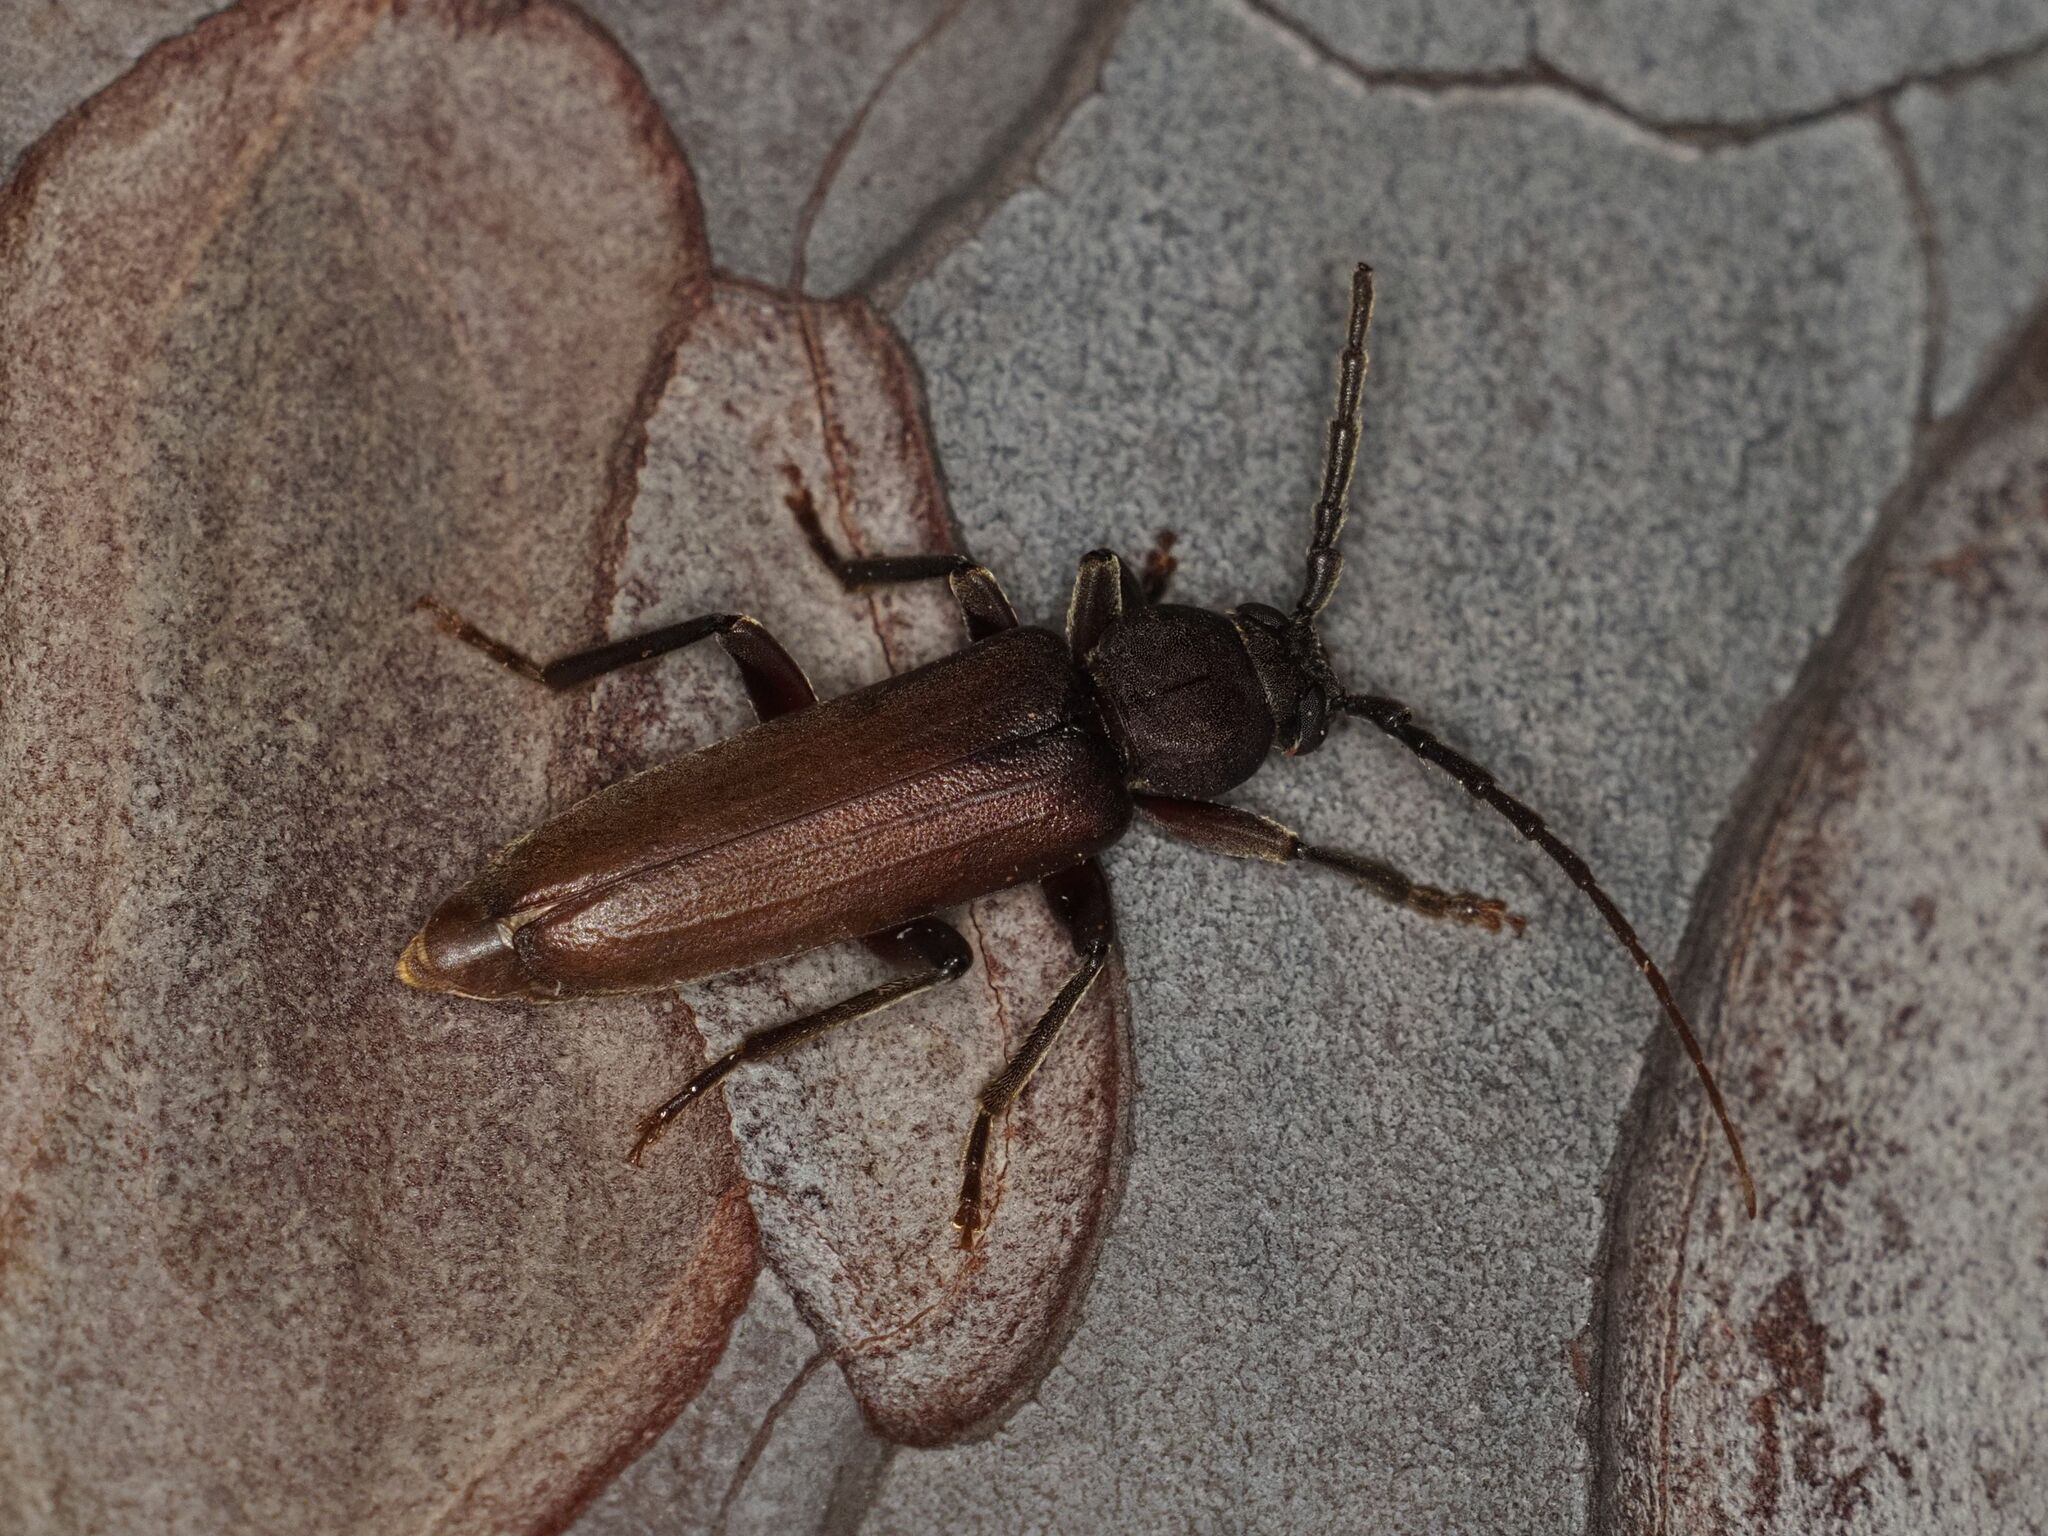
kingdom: Animalia
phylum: Arthropoda
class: Insecta
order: Coleoptera
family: Cerambycidae
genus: Arhopalus
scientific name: Arhopalus rusticus
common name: Rust pine borer
